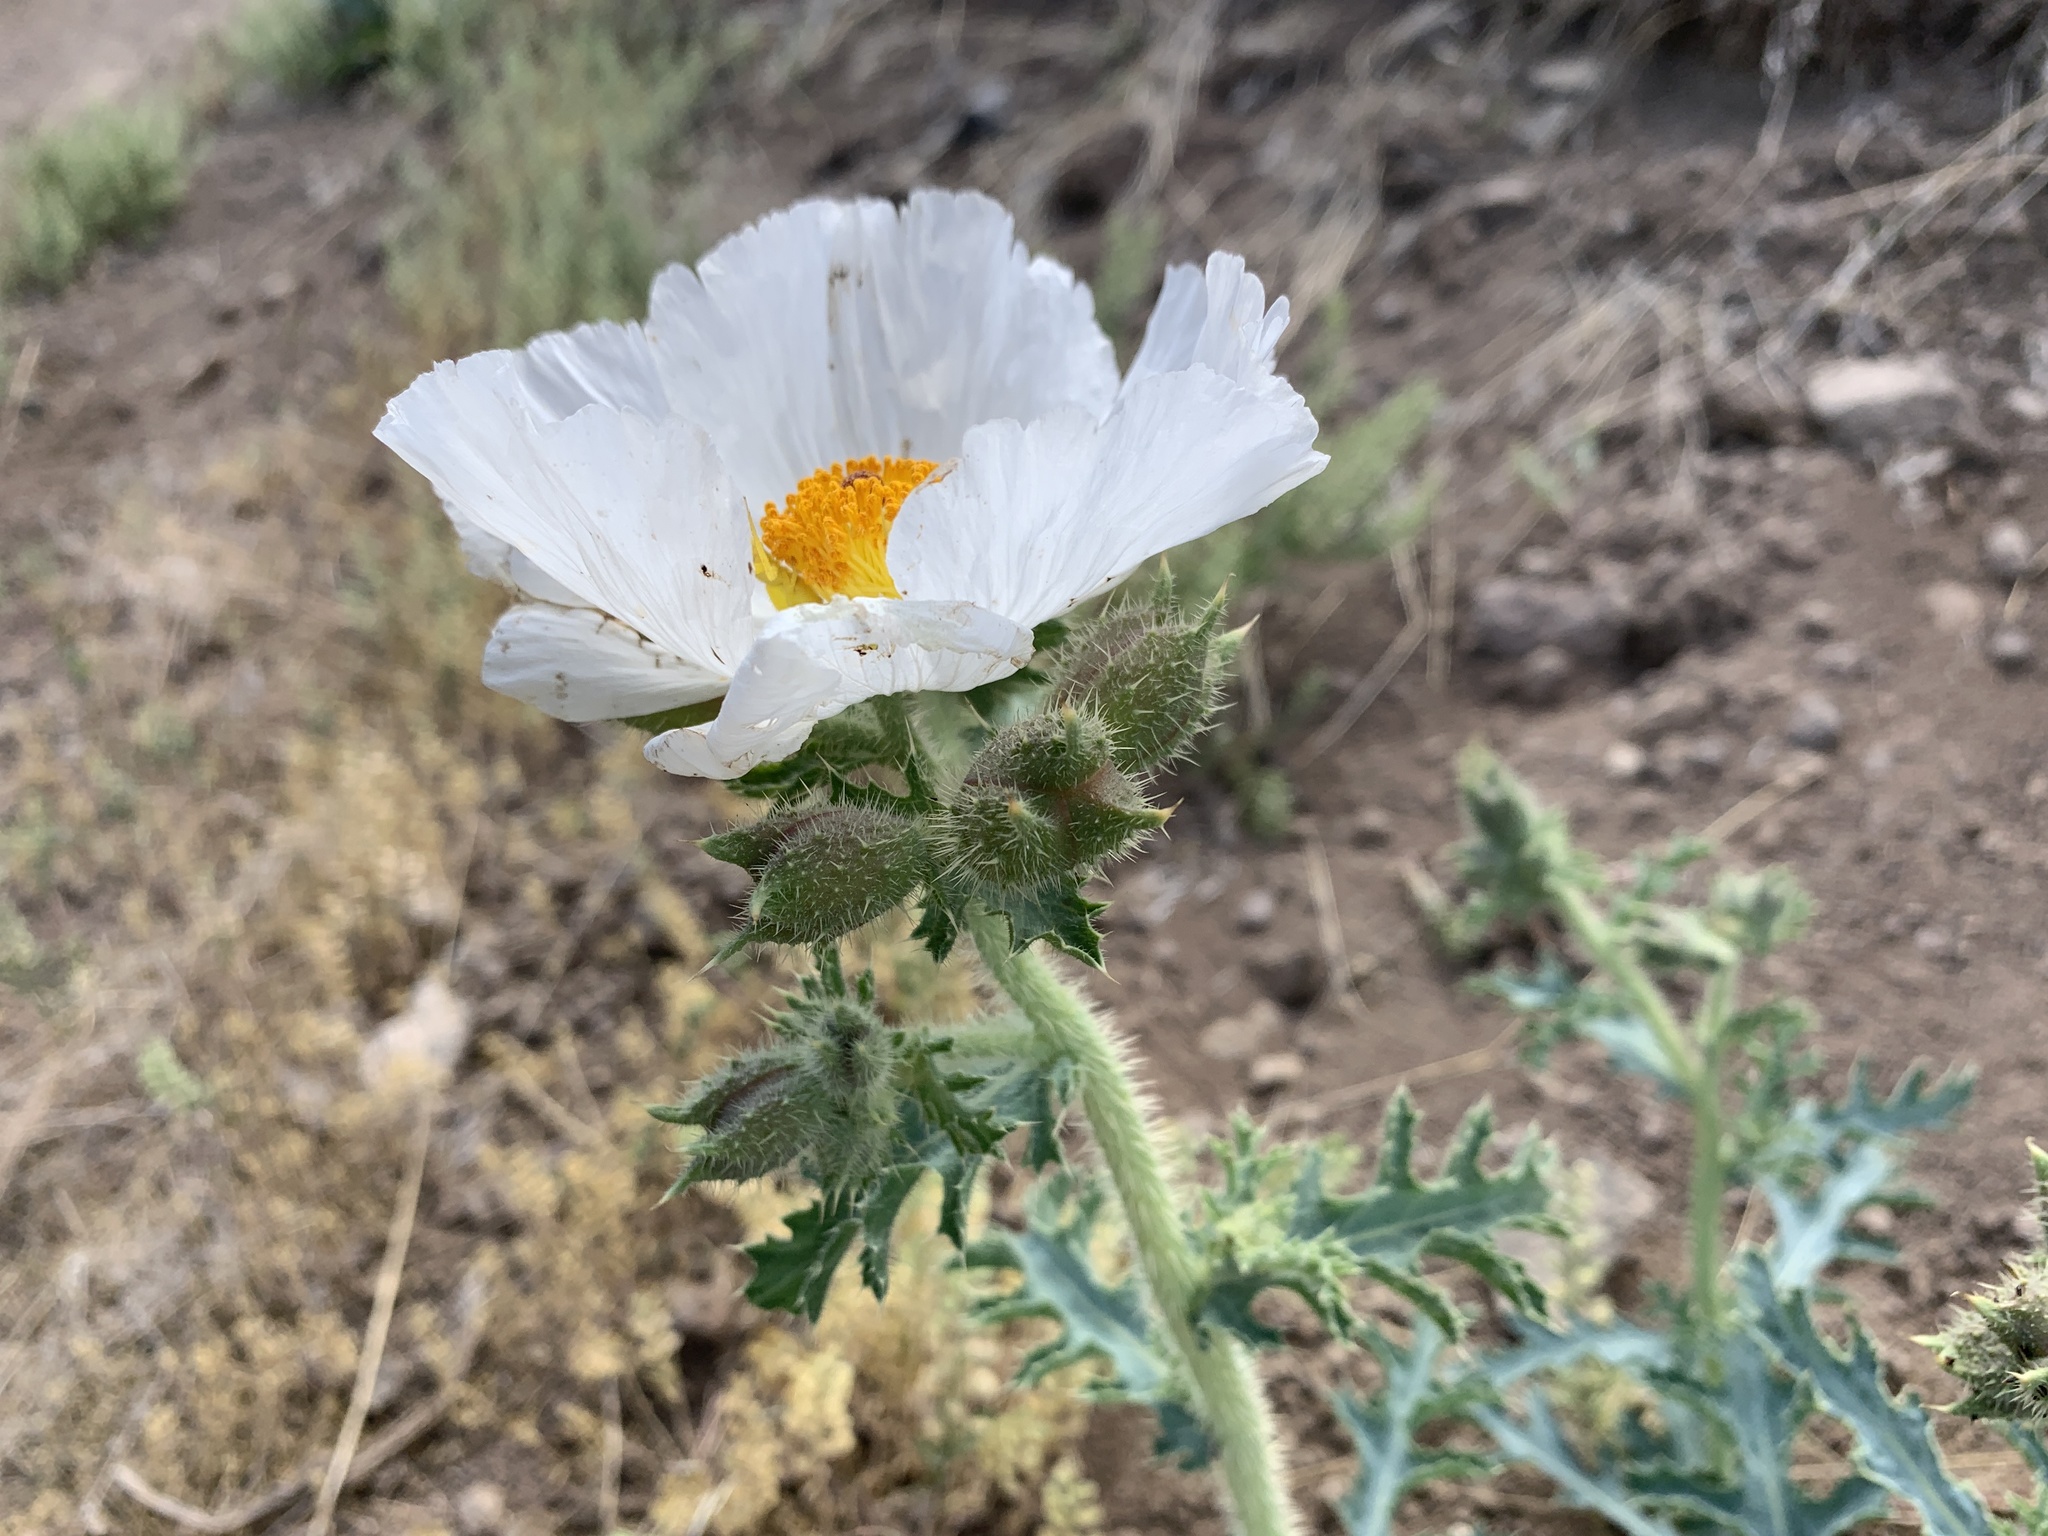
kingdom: Plantae
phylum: Tracheophyta
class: Magnoliopsida
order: Ranunculales
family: Papaveraceae
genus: Argemone
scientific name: Argemone munita
